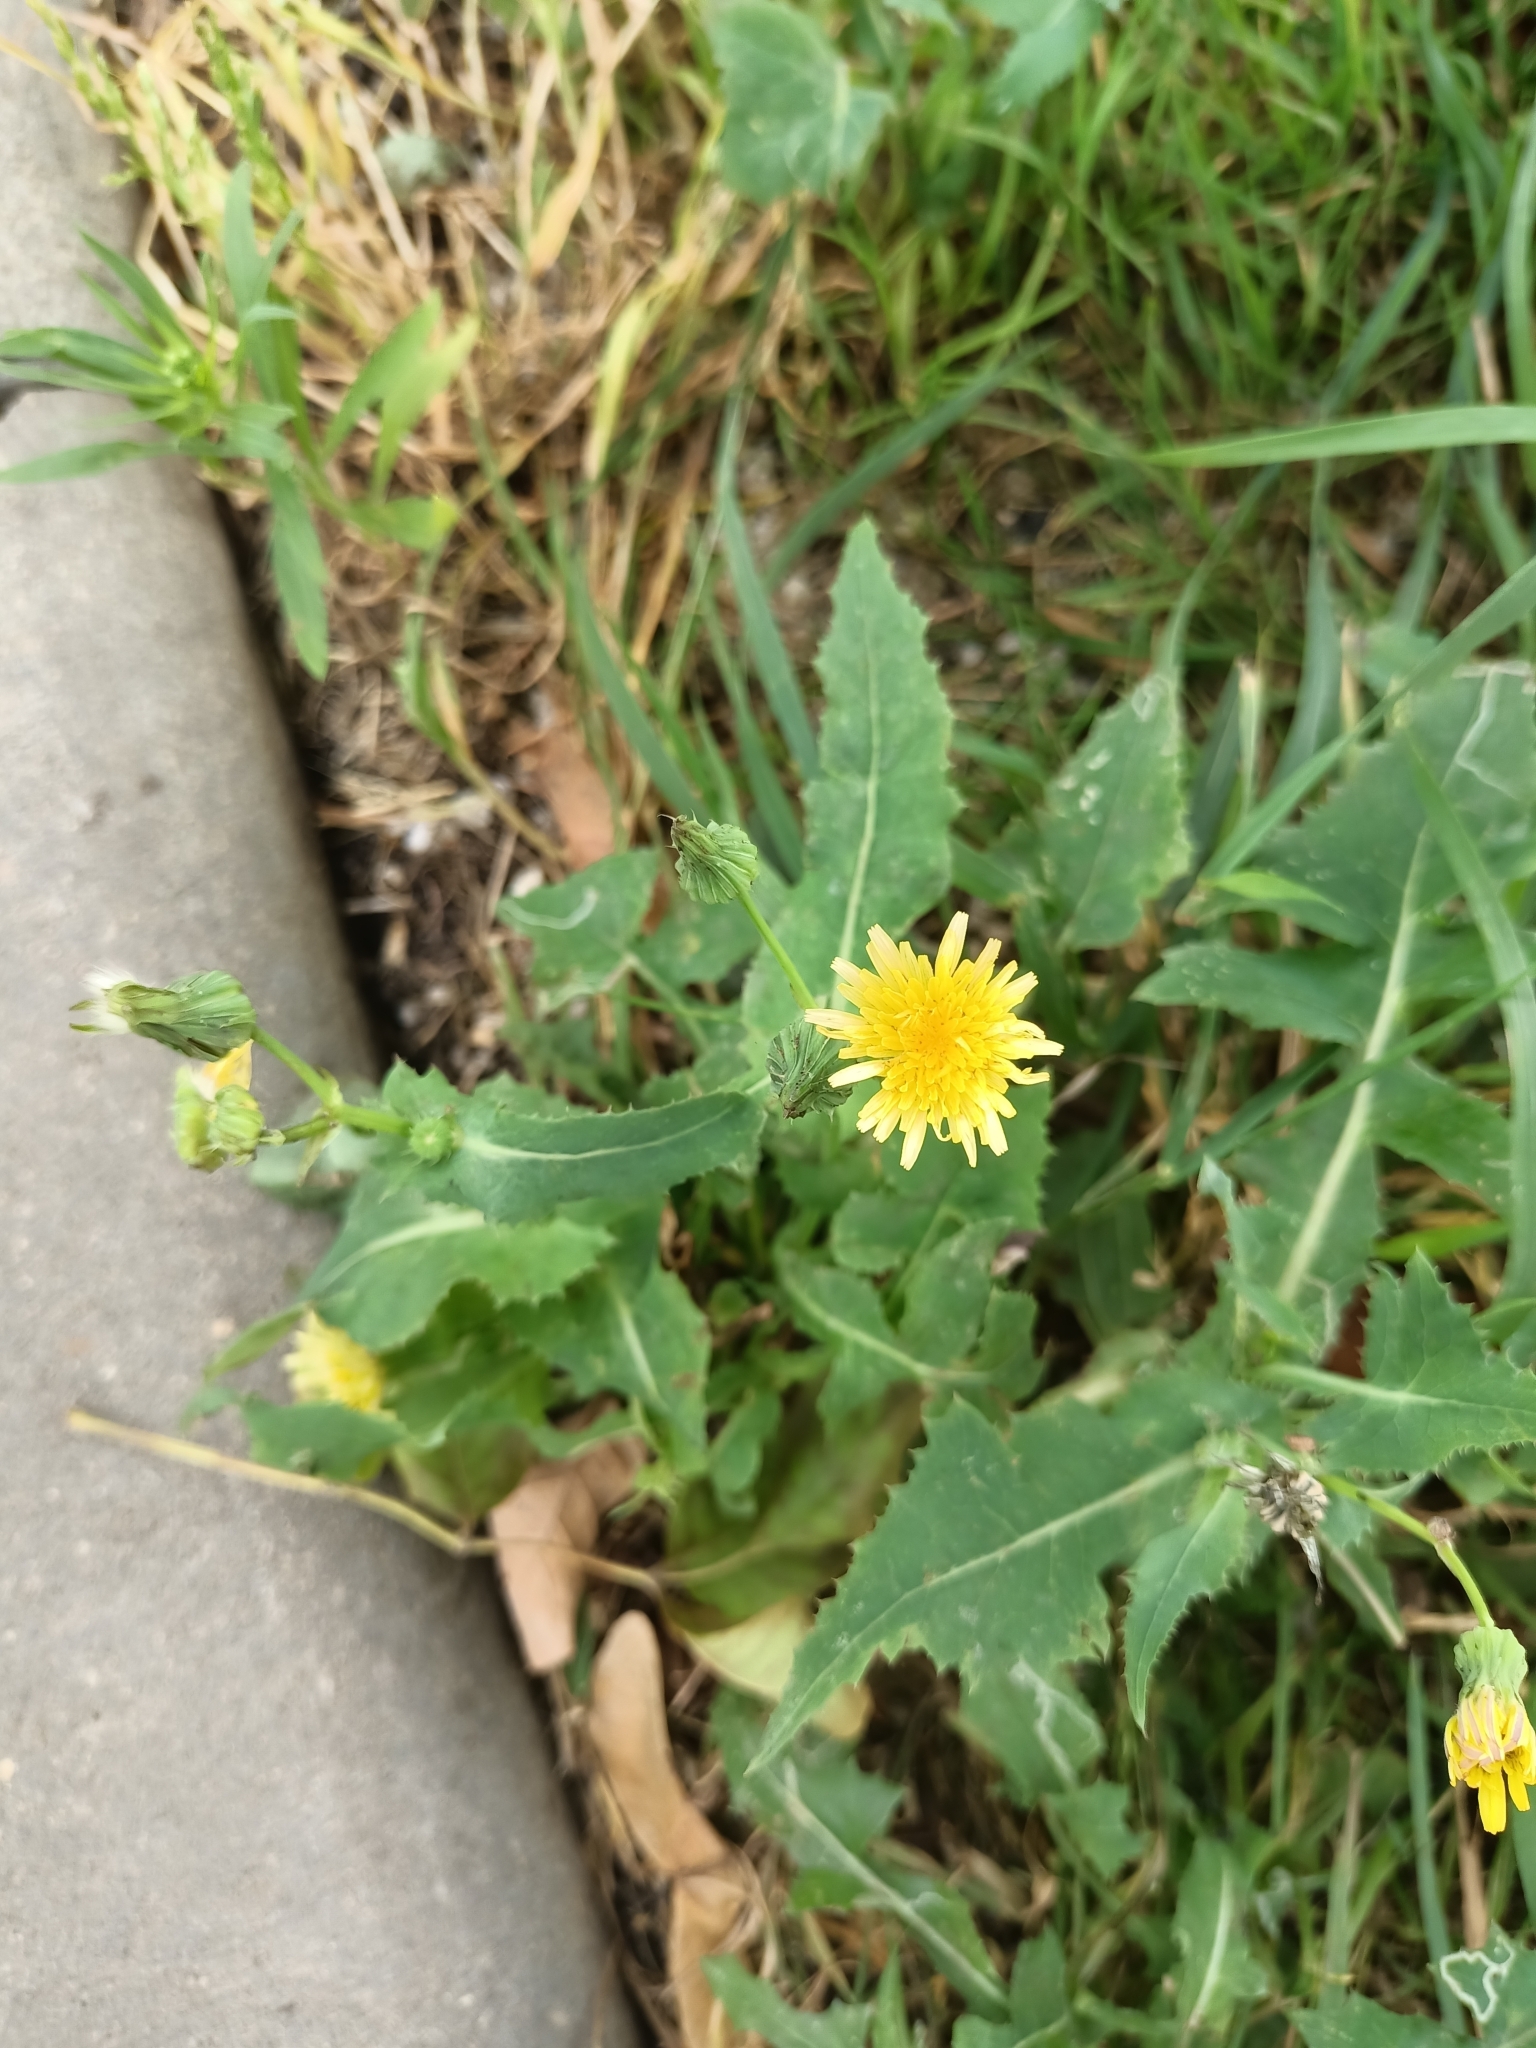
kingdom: Plantae
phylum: Tracheophyta
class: Magnoliopsida
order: Asterales
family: Asteraceae
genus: Sonchus
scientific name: Sonchus oleraceus
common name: Common sowthistle
